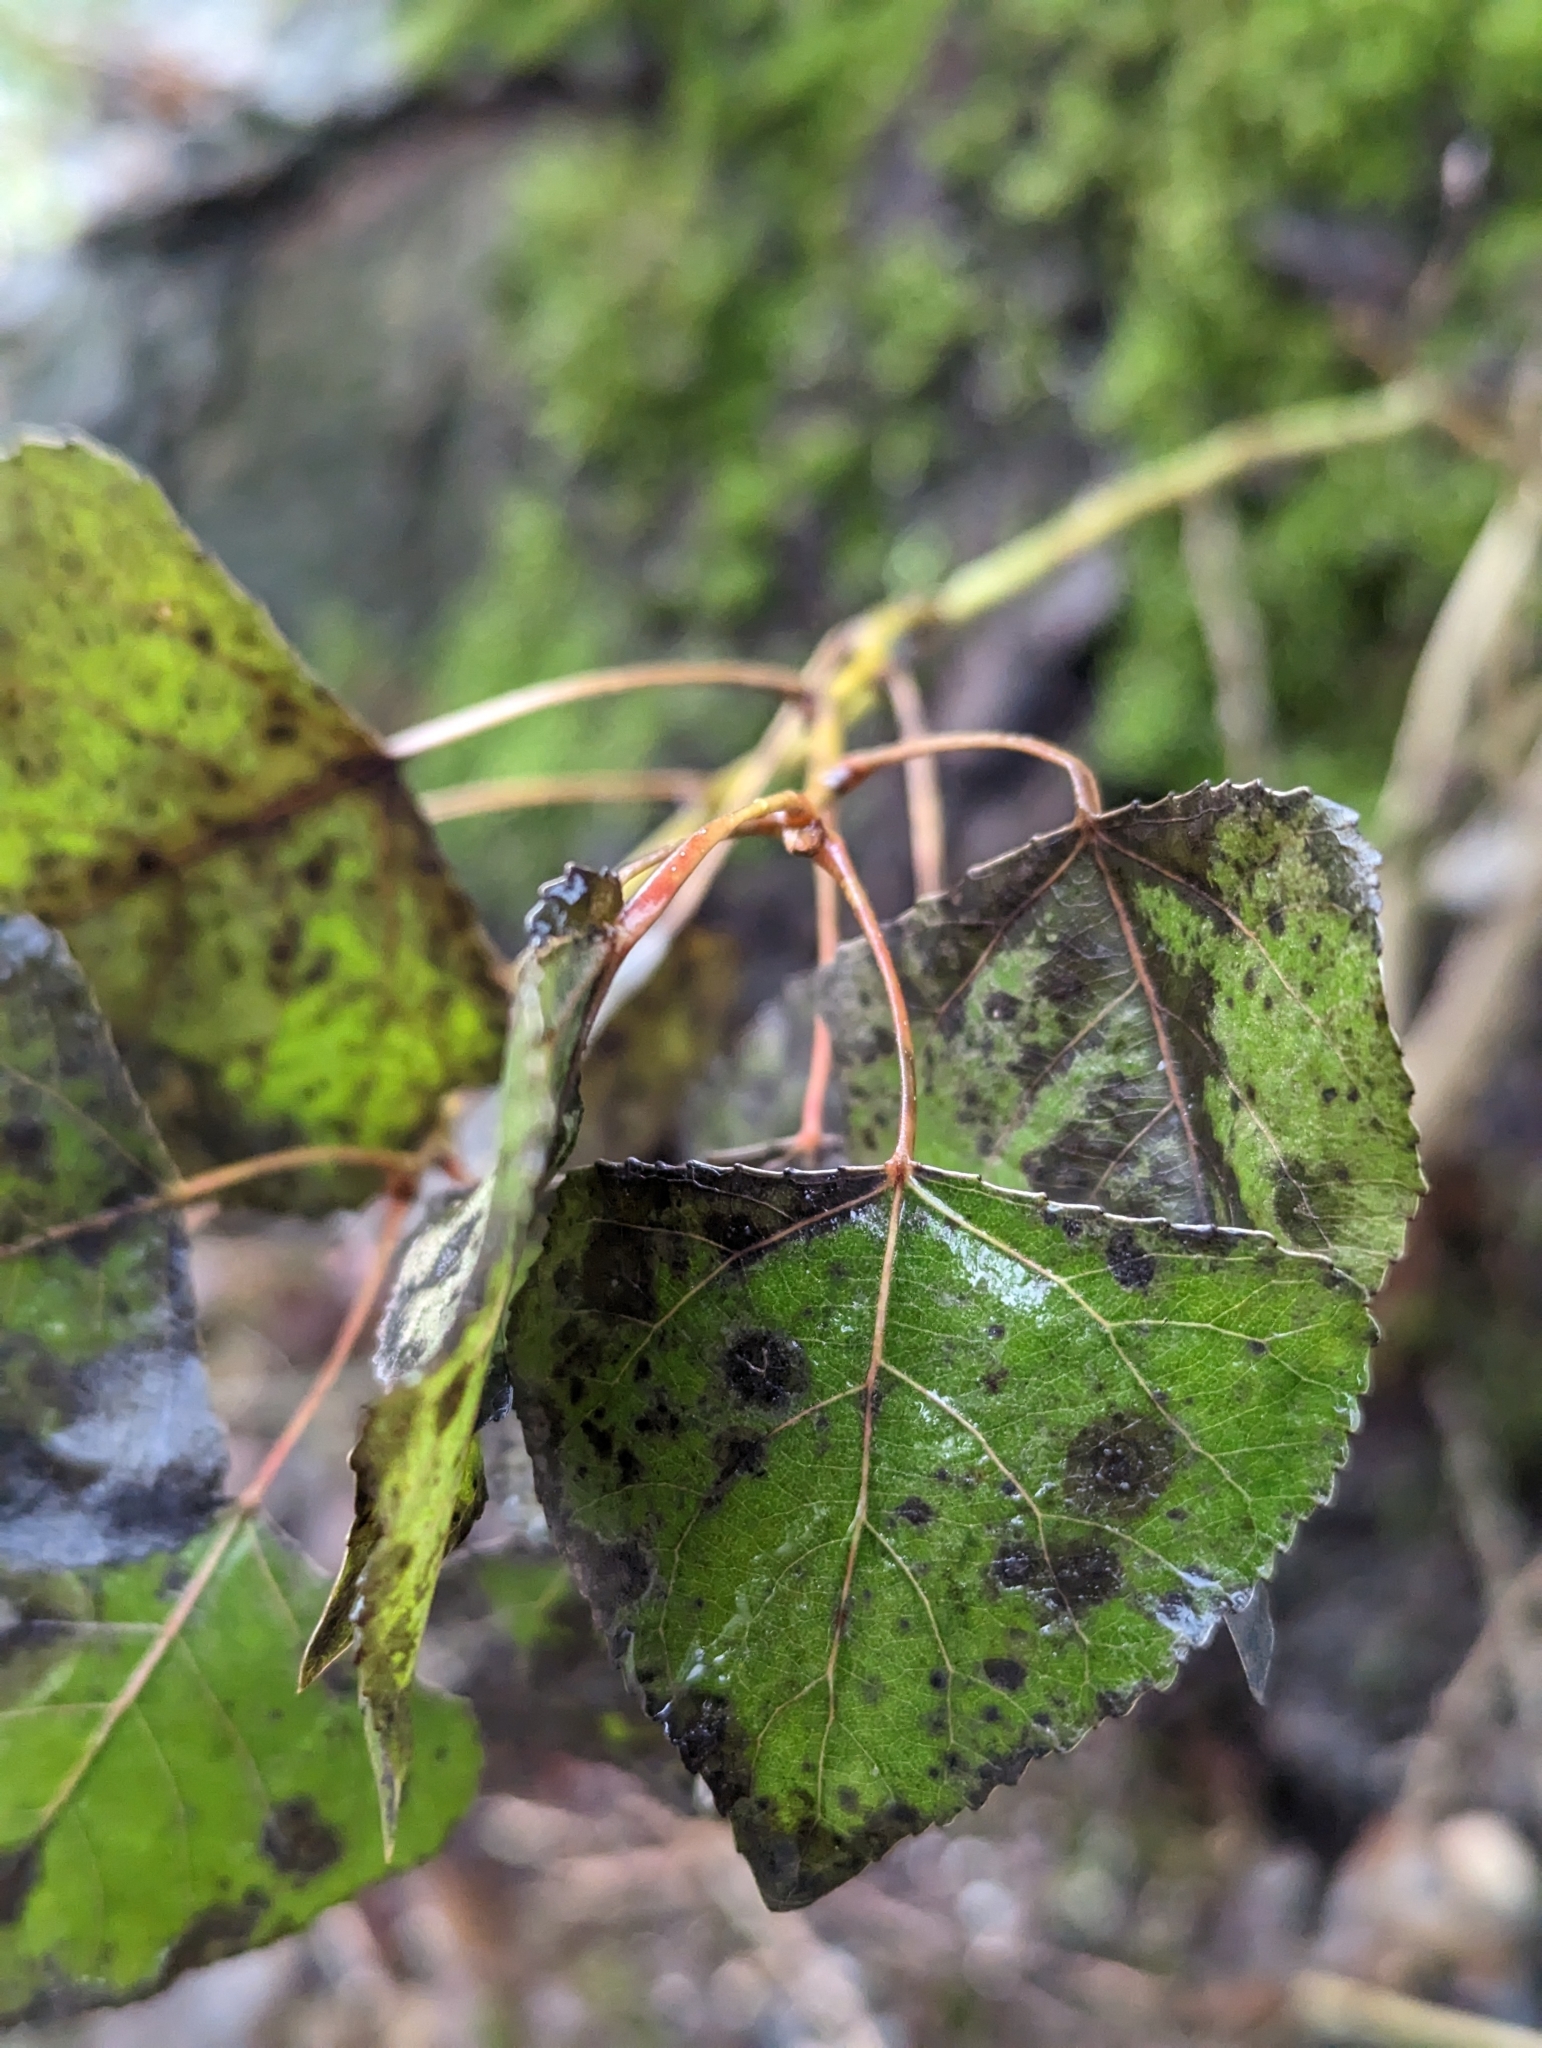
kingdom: Plantae
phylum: Tracheophyta
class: Magnoliopsida
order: Malpighiales
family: Salicaceae
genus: Populus
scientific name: Populus nigra
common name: Black poplar
